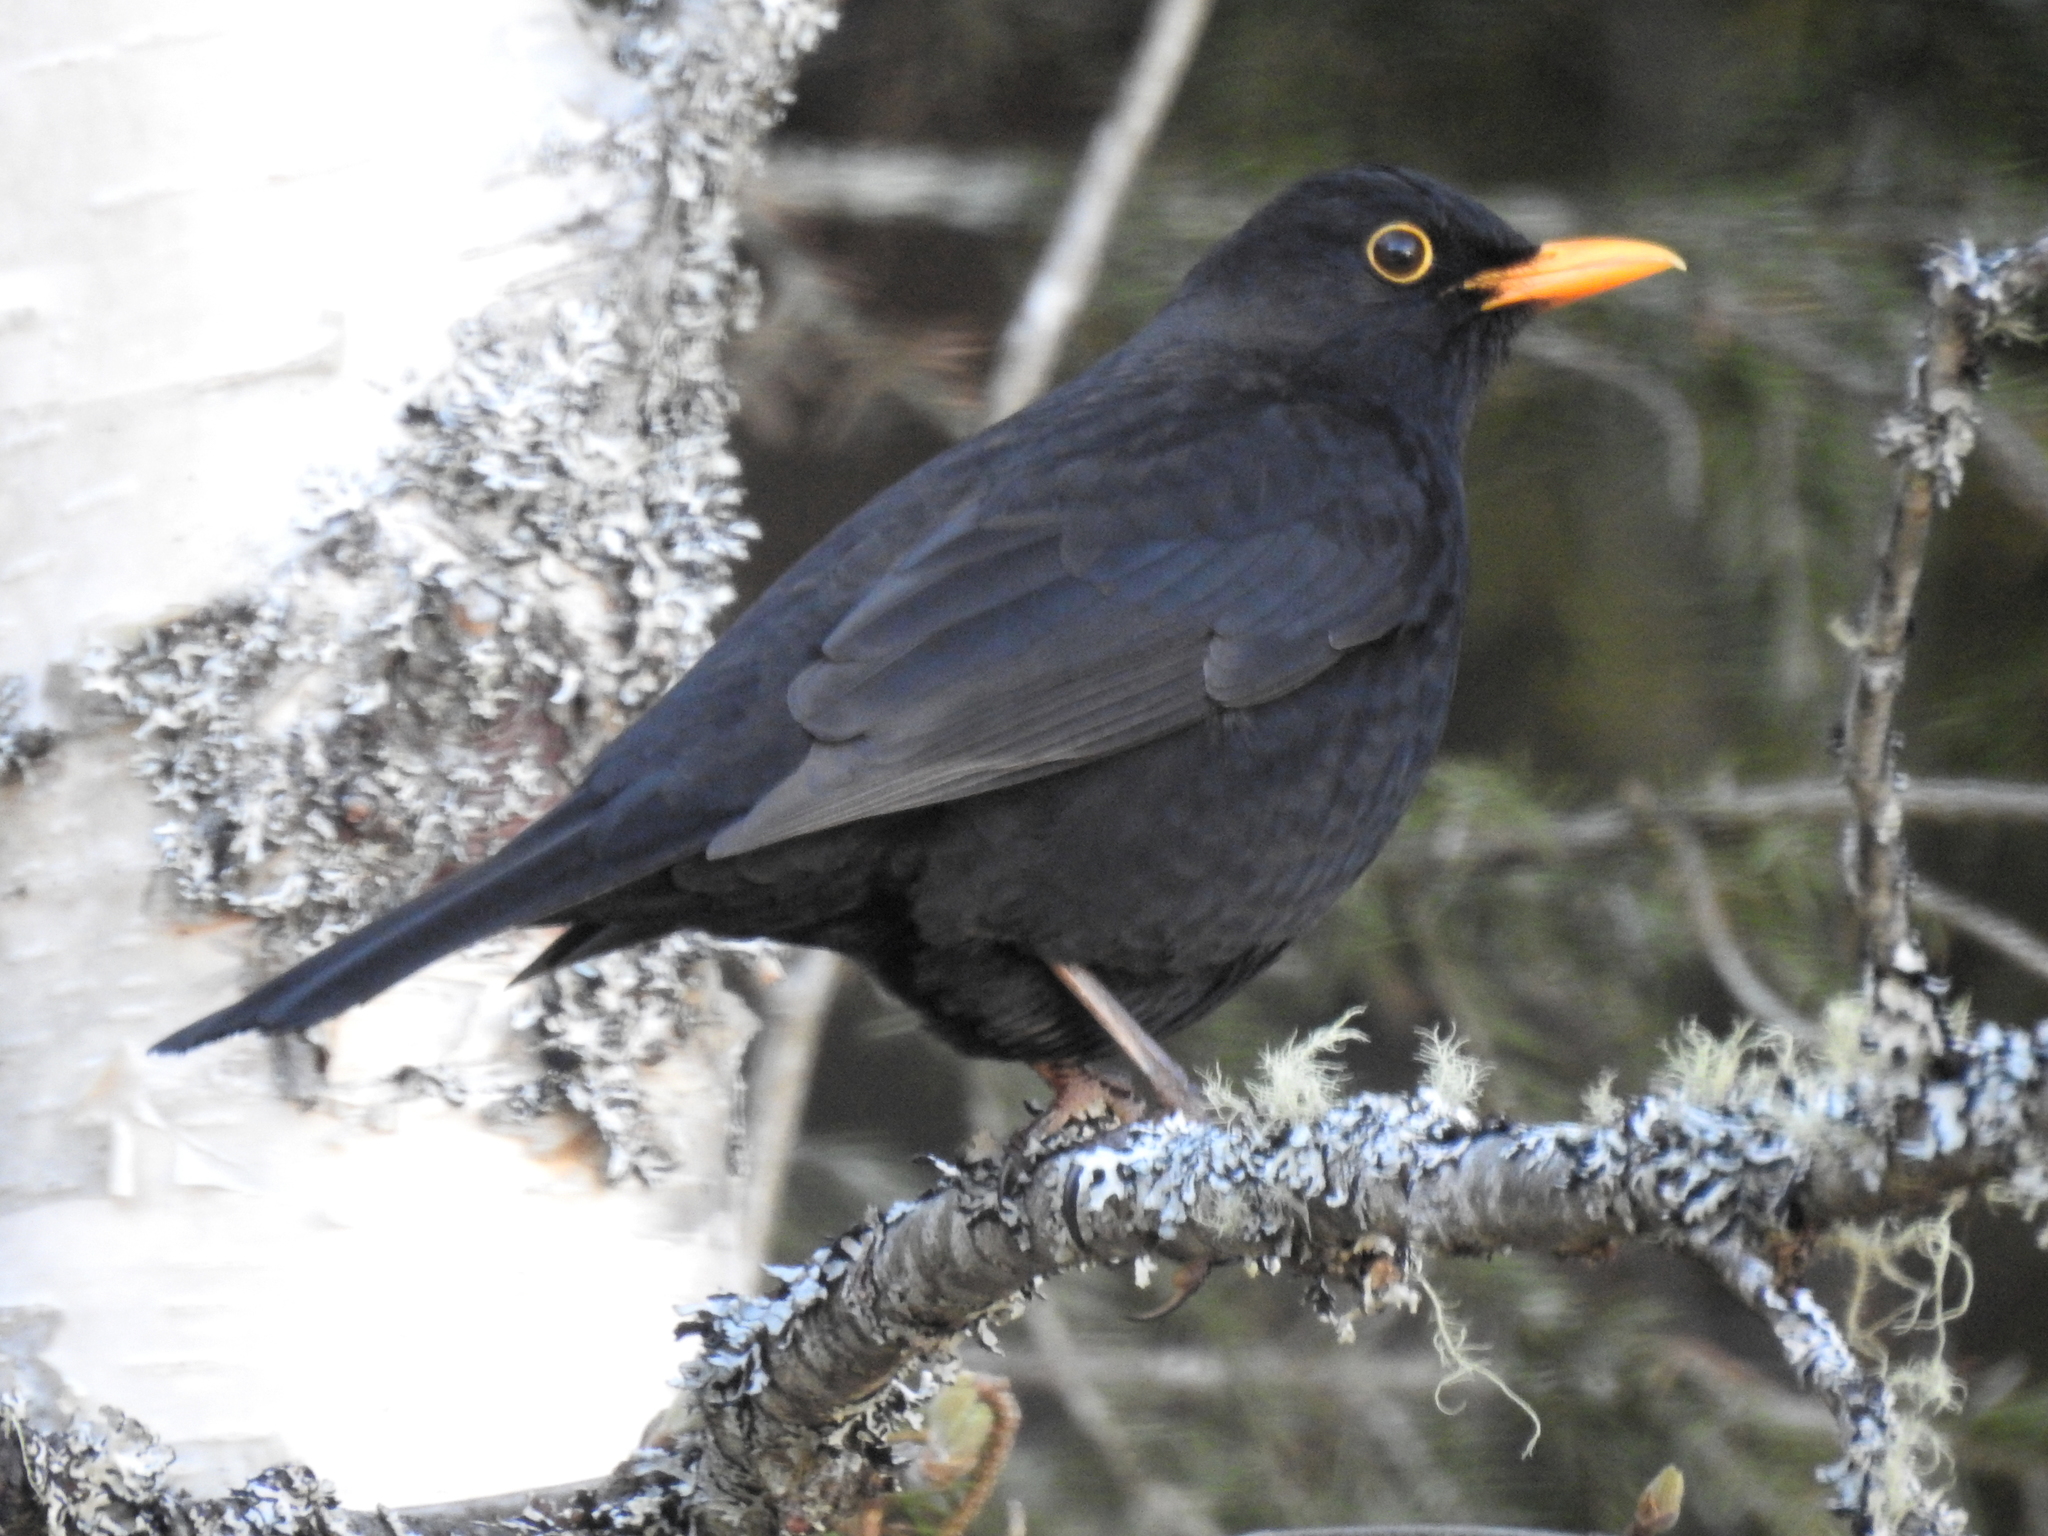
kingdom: Animalia
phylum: Chordata
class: Aves
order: Passeriformes
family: Turdidae
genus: Turdus
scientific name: Turdus merula
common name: Common blackbird
